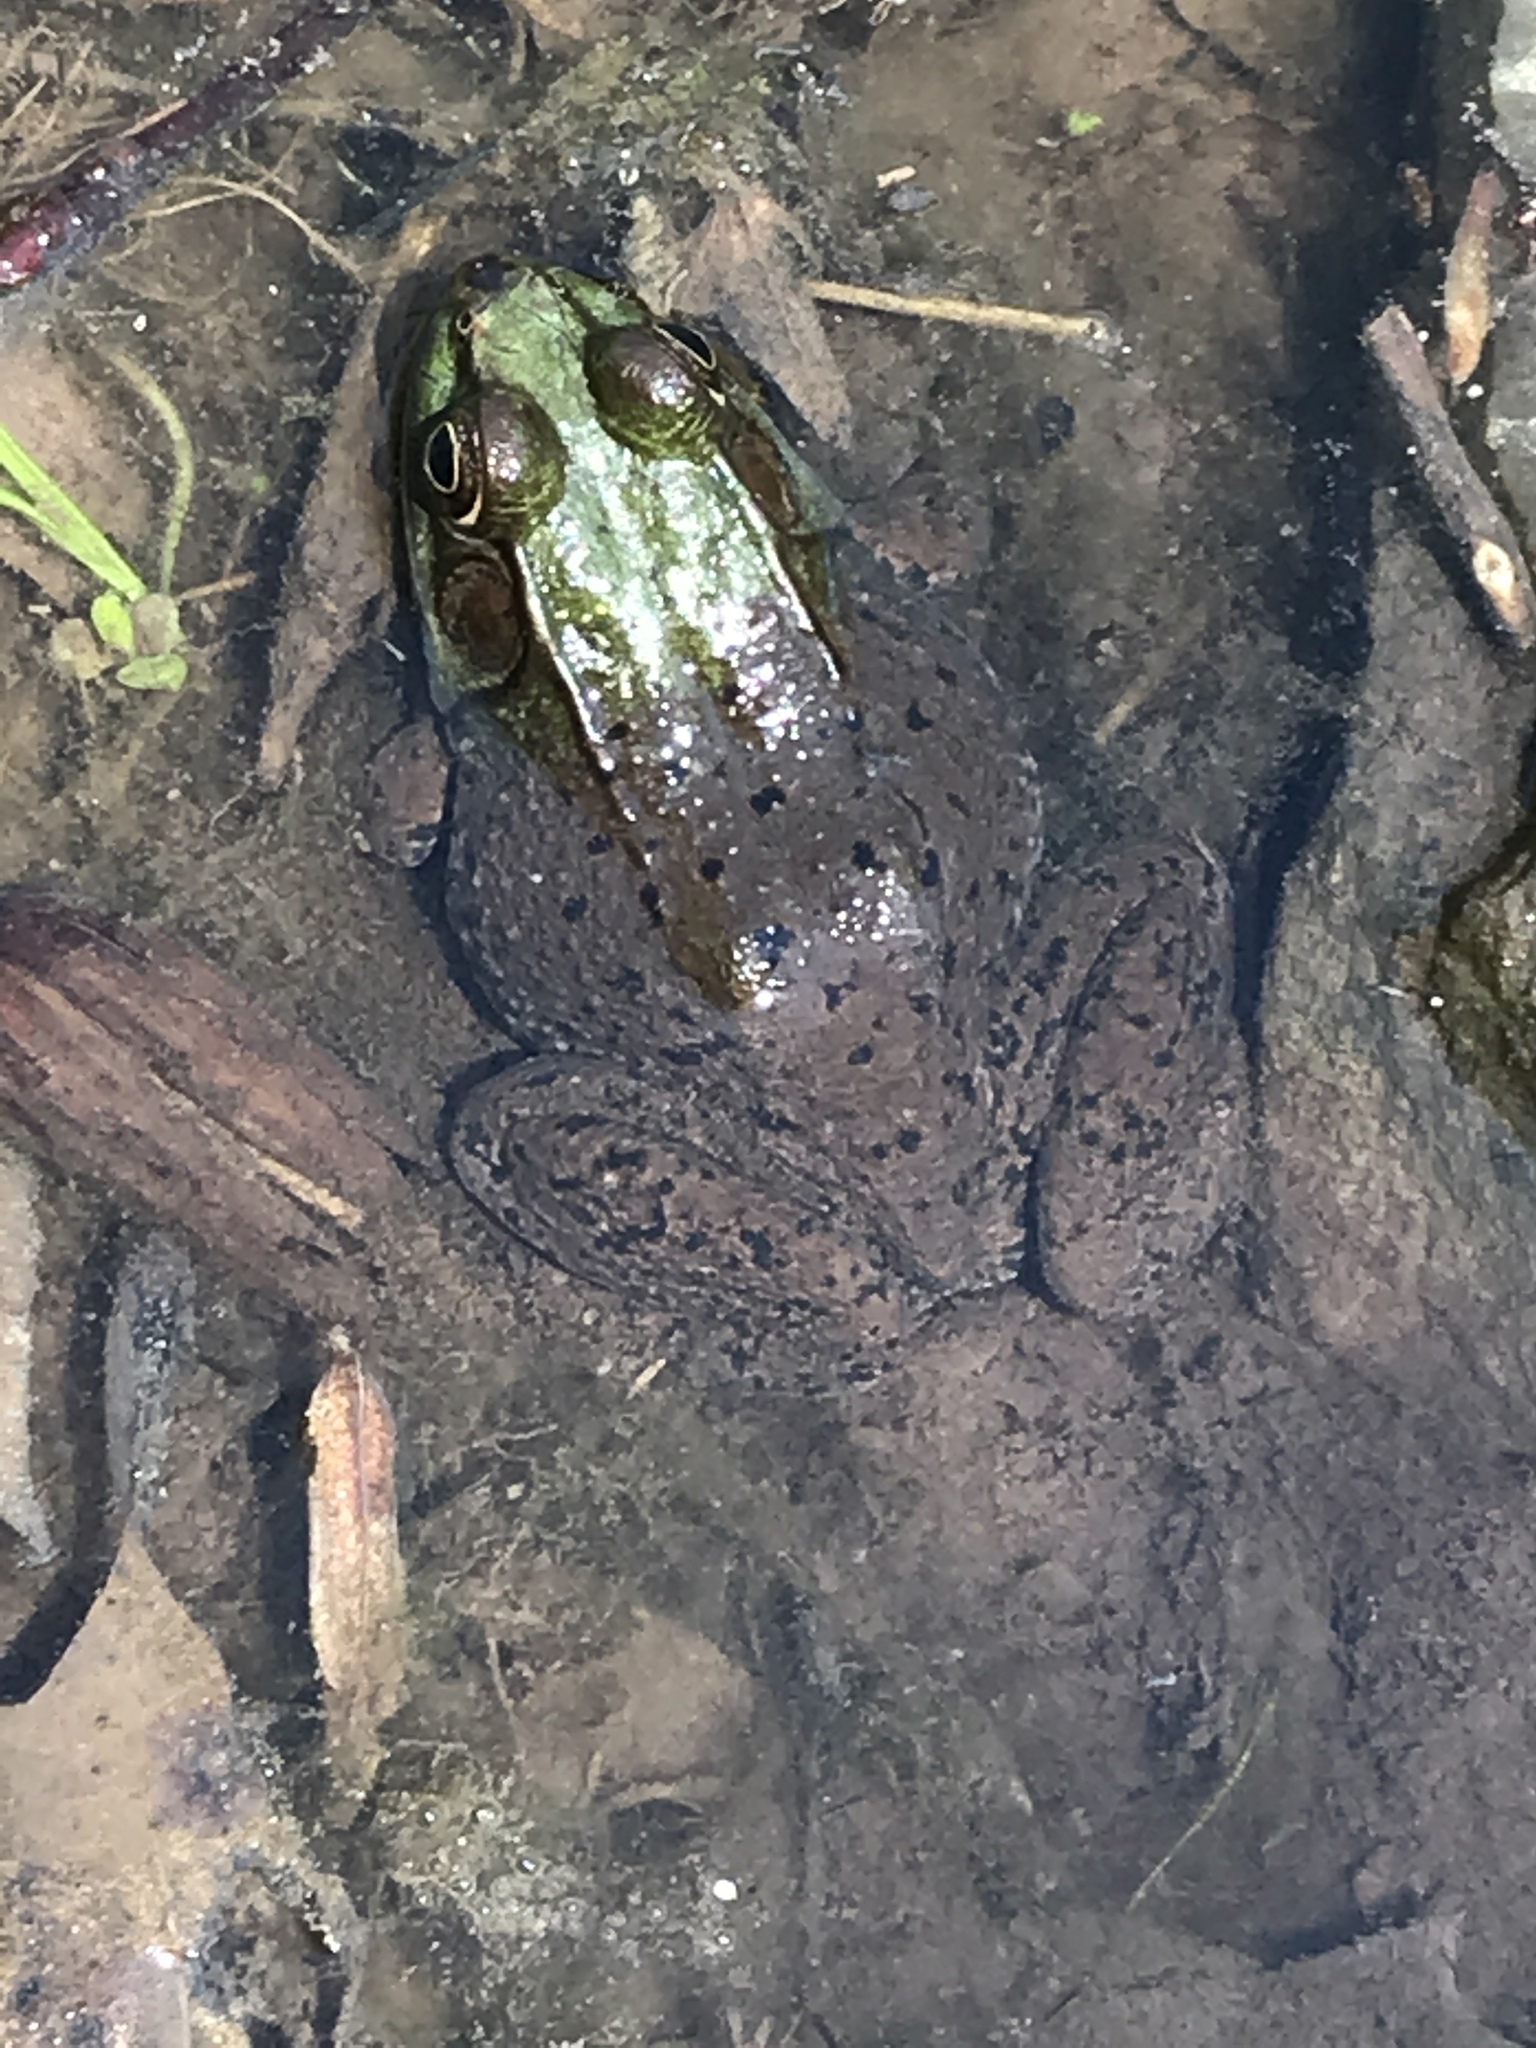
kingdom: Animalia
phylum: Chordata
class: Amphibia
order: Anura
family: Ranidae
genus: Lithobates
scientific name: Lithobates clamitans
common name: Green frog
